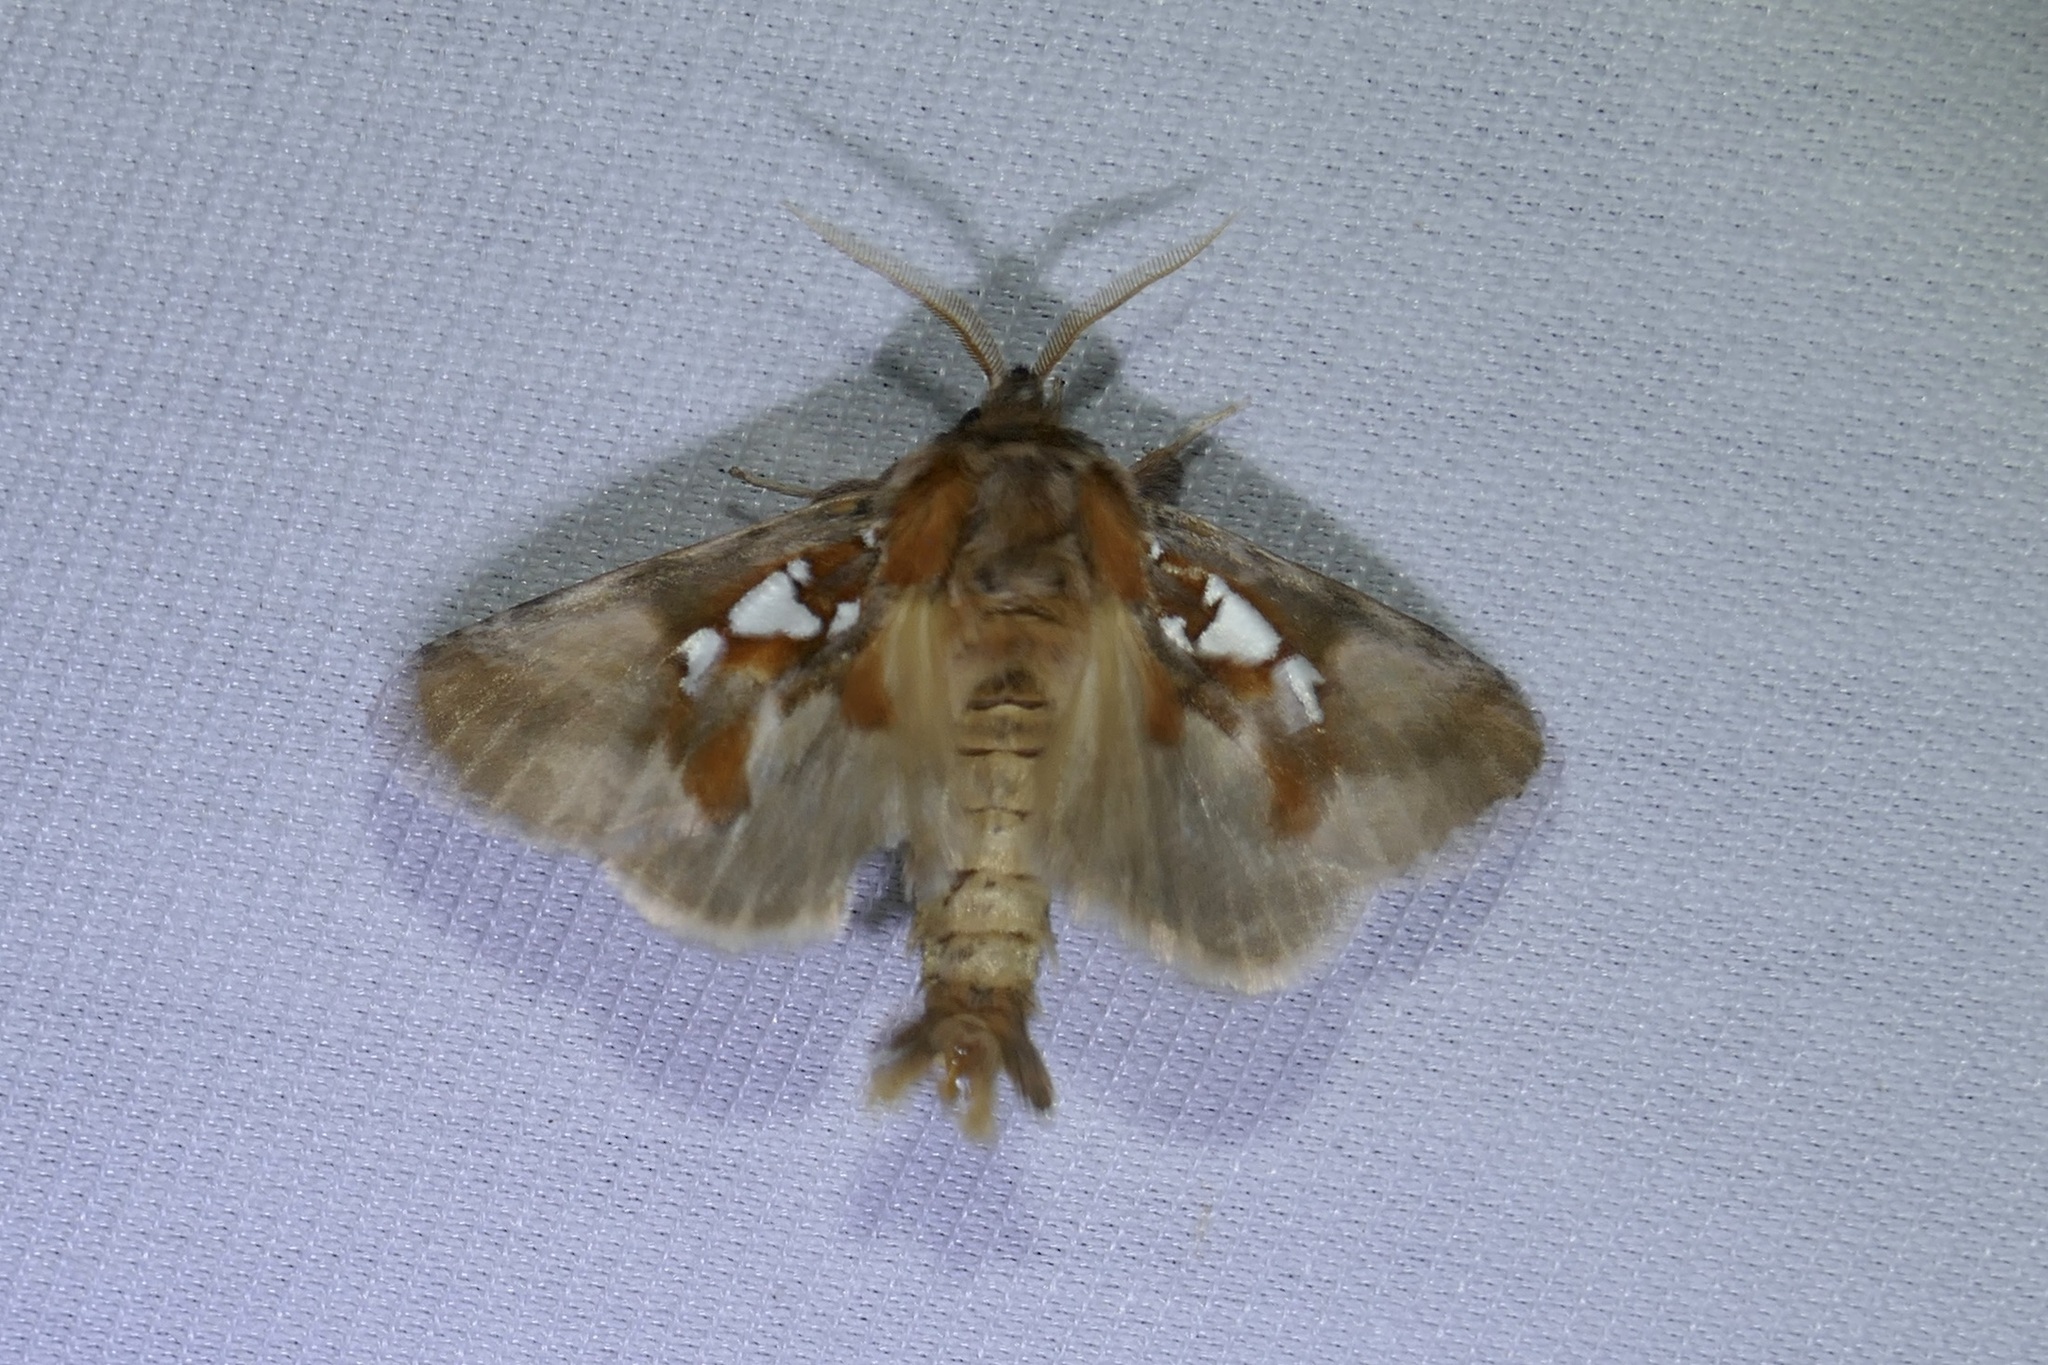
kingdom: Animalia
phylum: Arthropoda
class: Insecta
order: Lepidoptera
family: Notodontidae
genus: Spatalia
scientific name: Spatalia argentina
